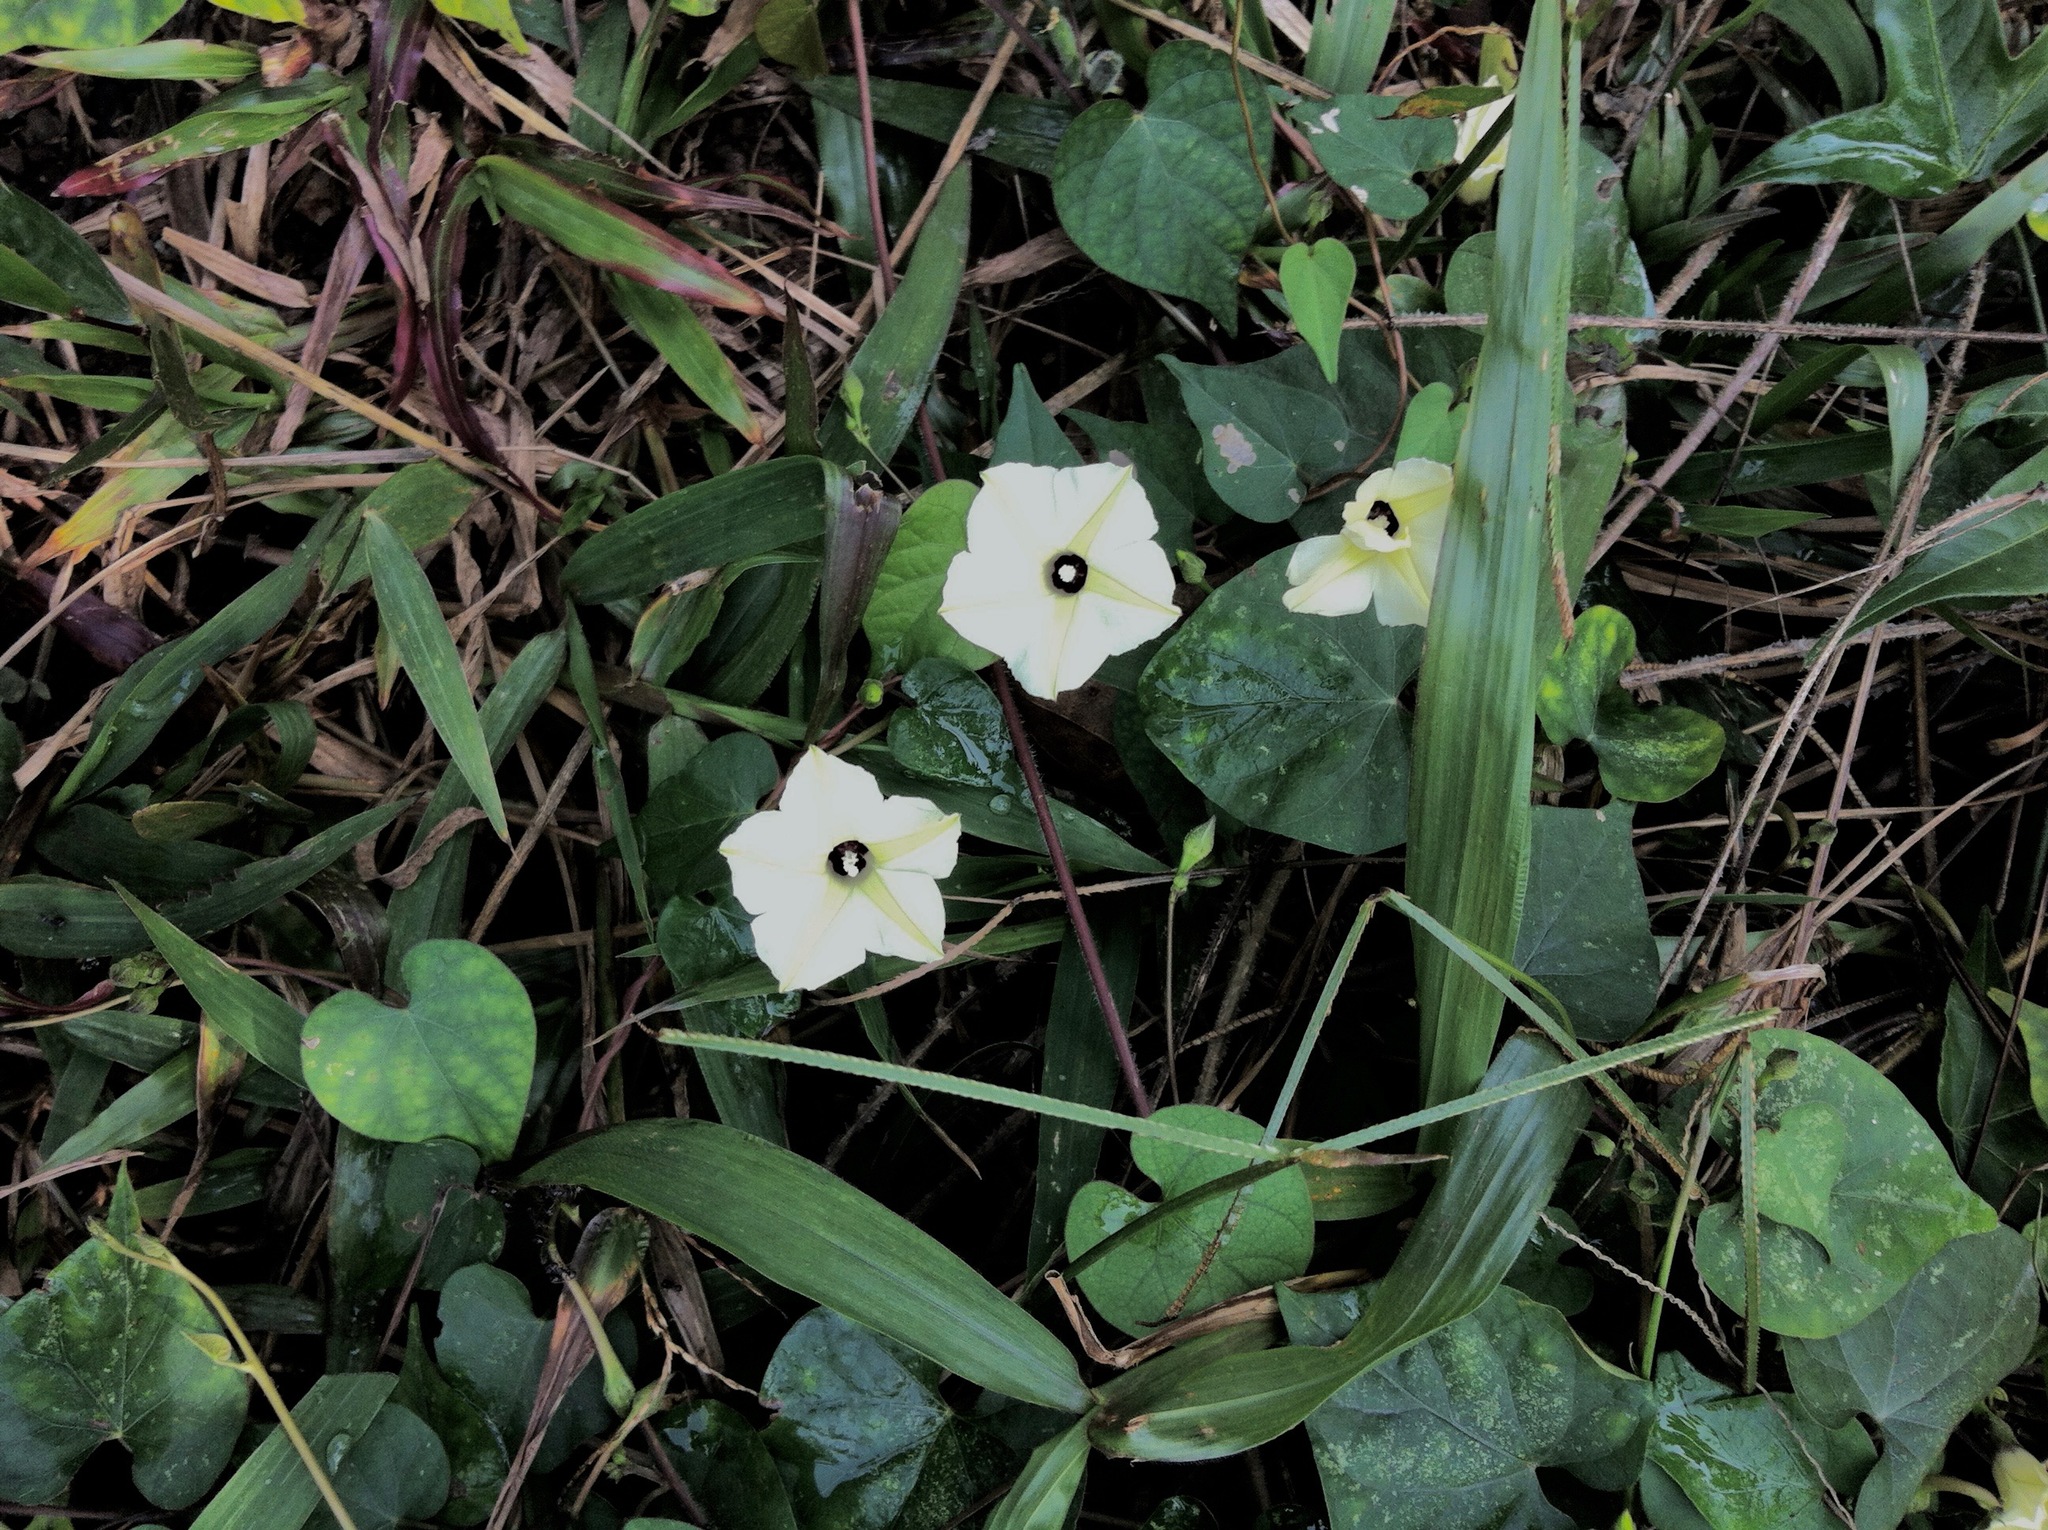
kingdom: Plantae
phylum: Tracheophyta
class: Magnoliopsida
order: Solanales
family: Convolvulaceae
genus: Ipomoea
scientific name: Ipomoea obscura
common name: Obscure morning-glory
